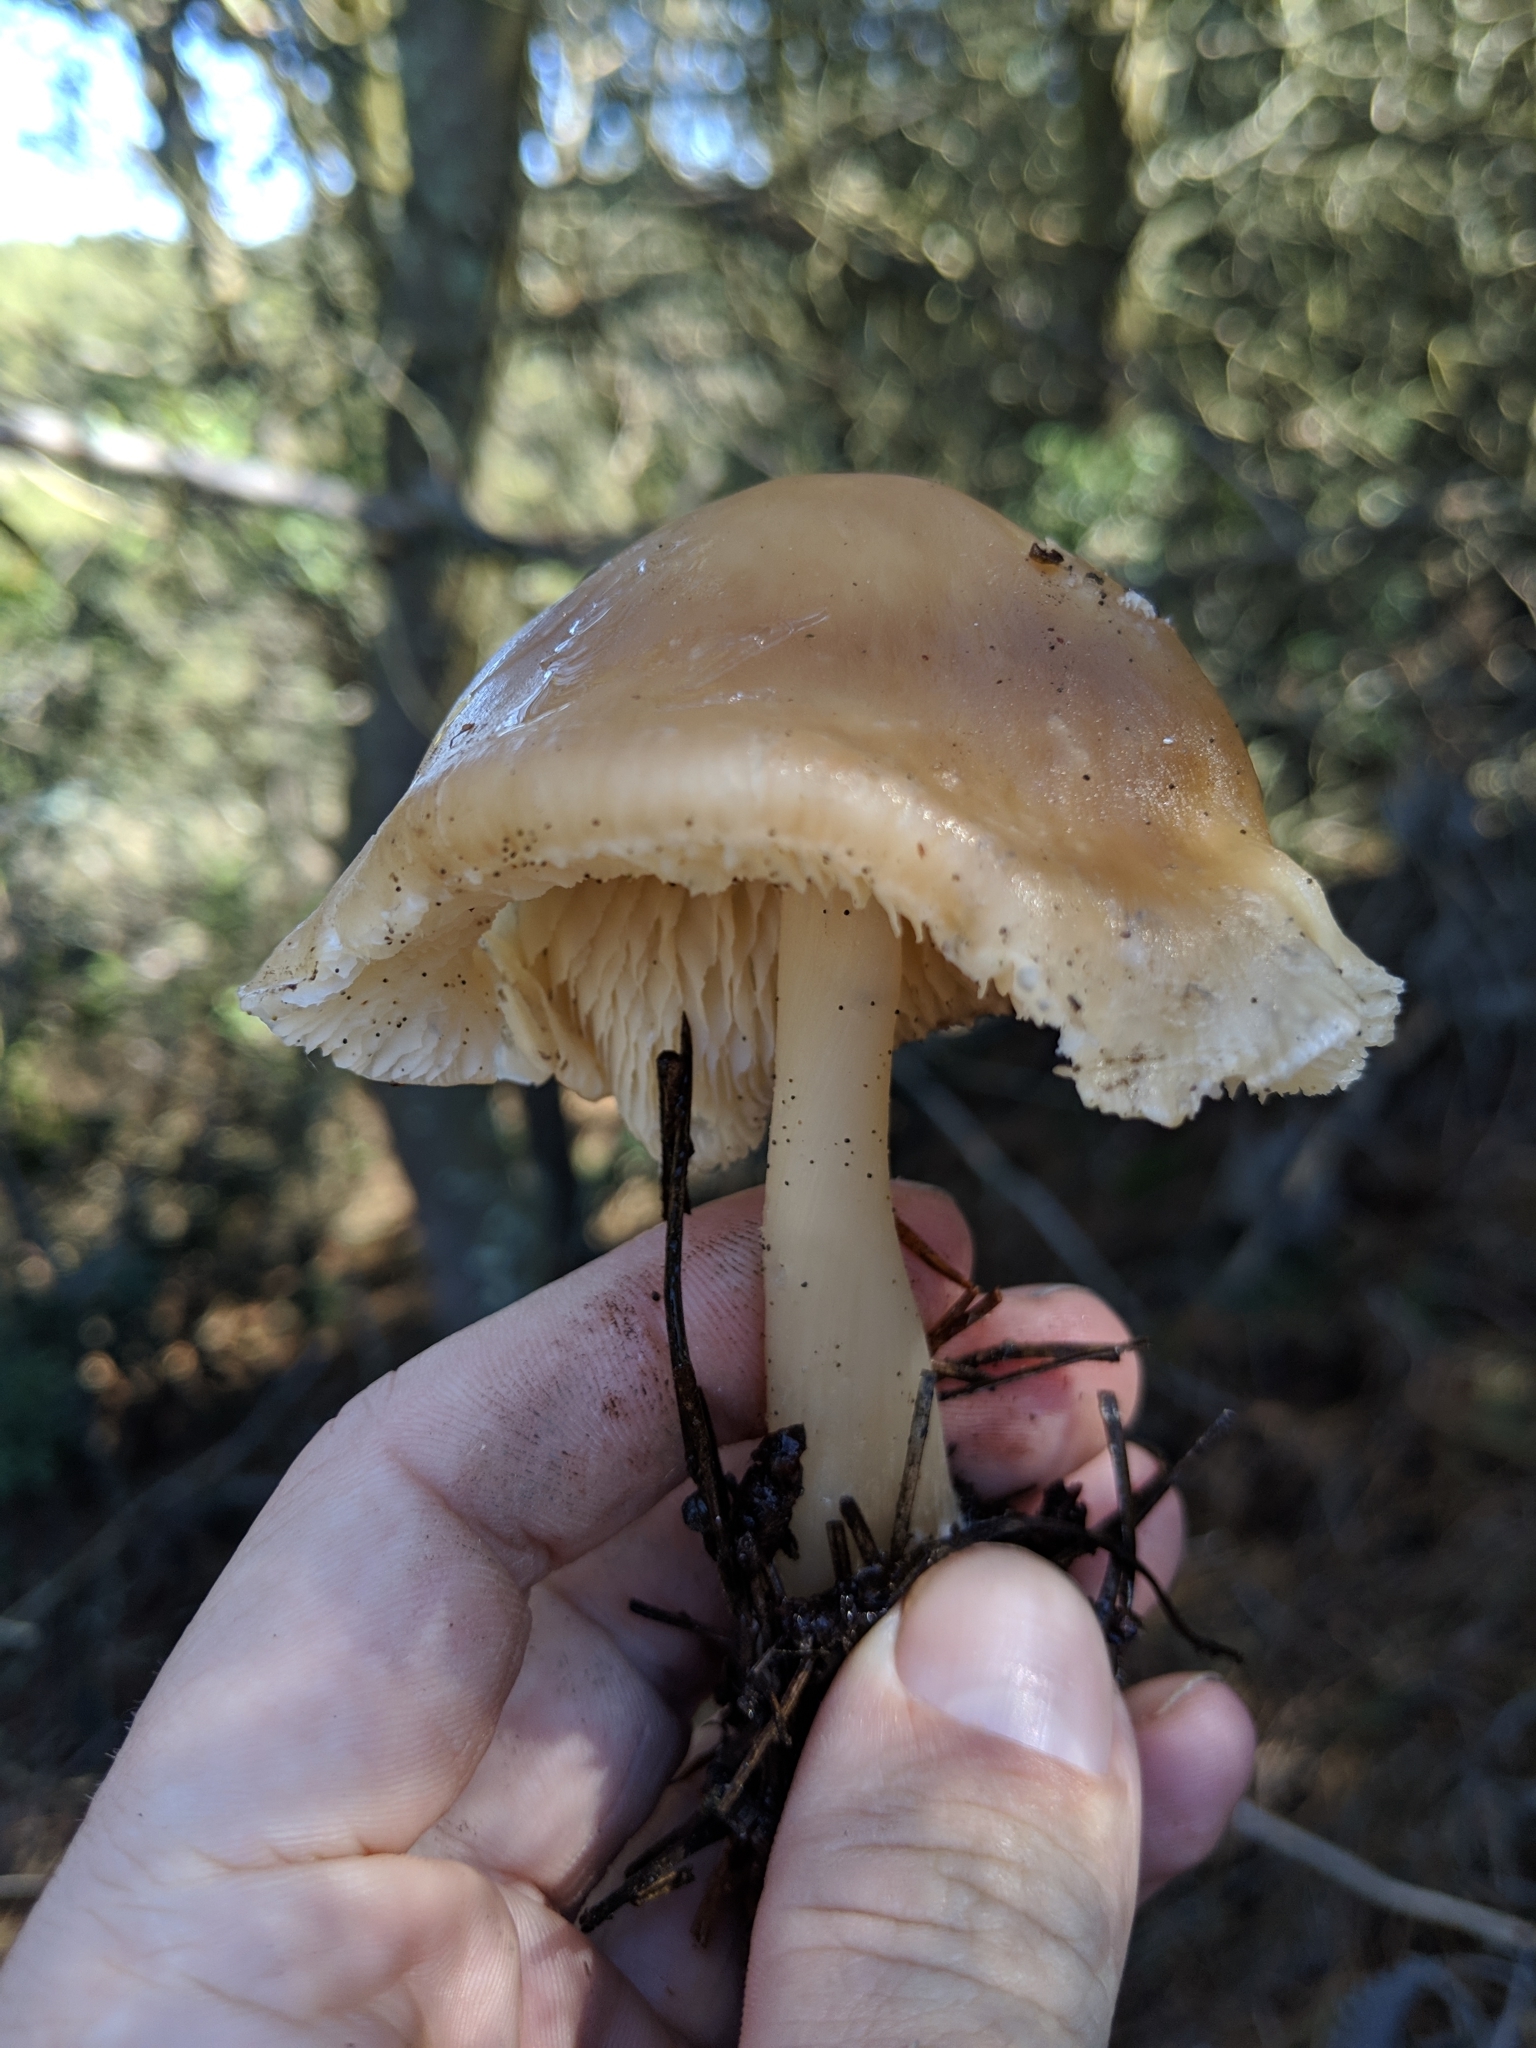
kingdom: Fungi
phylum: Basidiomycota
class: Agaricomycetes
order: Agaricales
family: Omphalotaceae
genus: Rhodocollybia
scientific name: Rhodocollybia butyracea
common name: Butter cap
